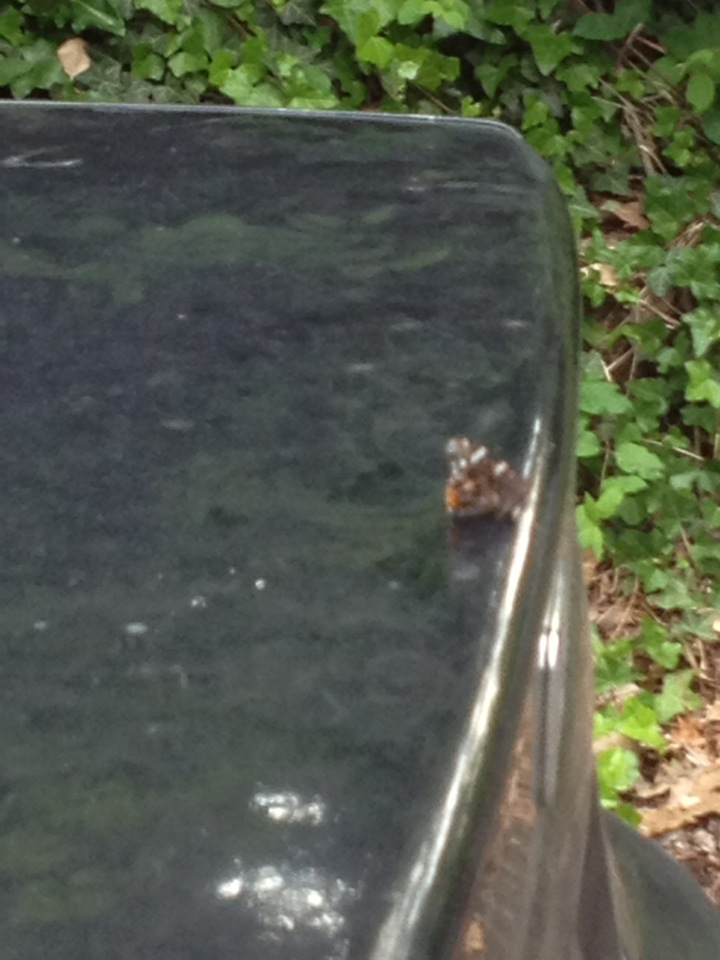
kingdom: Animalia
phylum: Arthropoda
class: Insecta
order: Lepidoptera
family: Nymphalidae
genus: Vanessa
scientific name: Vanessa atalanta
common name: Red admiral
